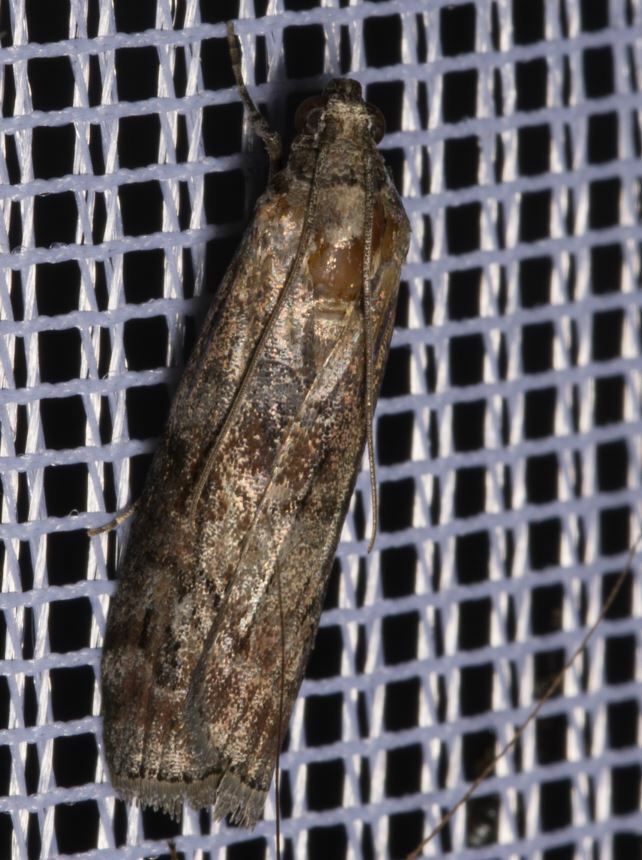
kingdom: Animalia
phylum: Arthropoda
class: Insecta
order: Lepidoptera
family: Pyralidae
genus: Phycita
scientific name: Phycita roborella
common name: Dotted oak knot-horn
